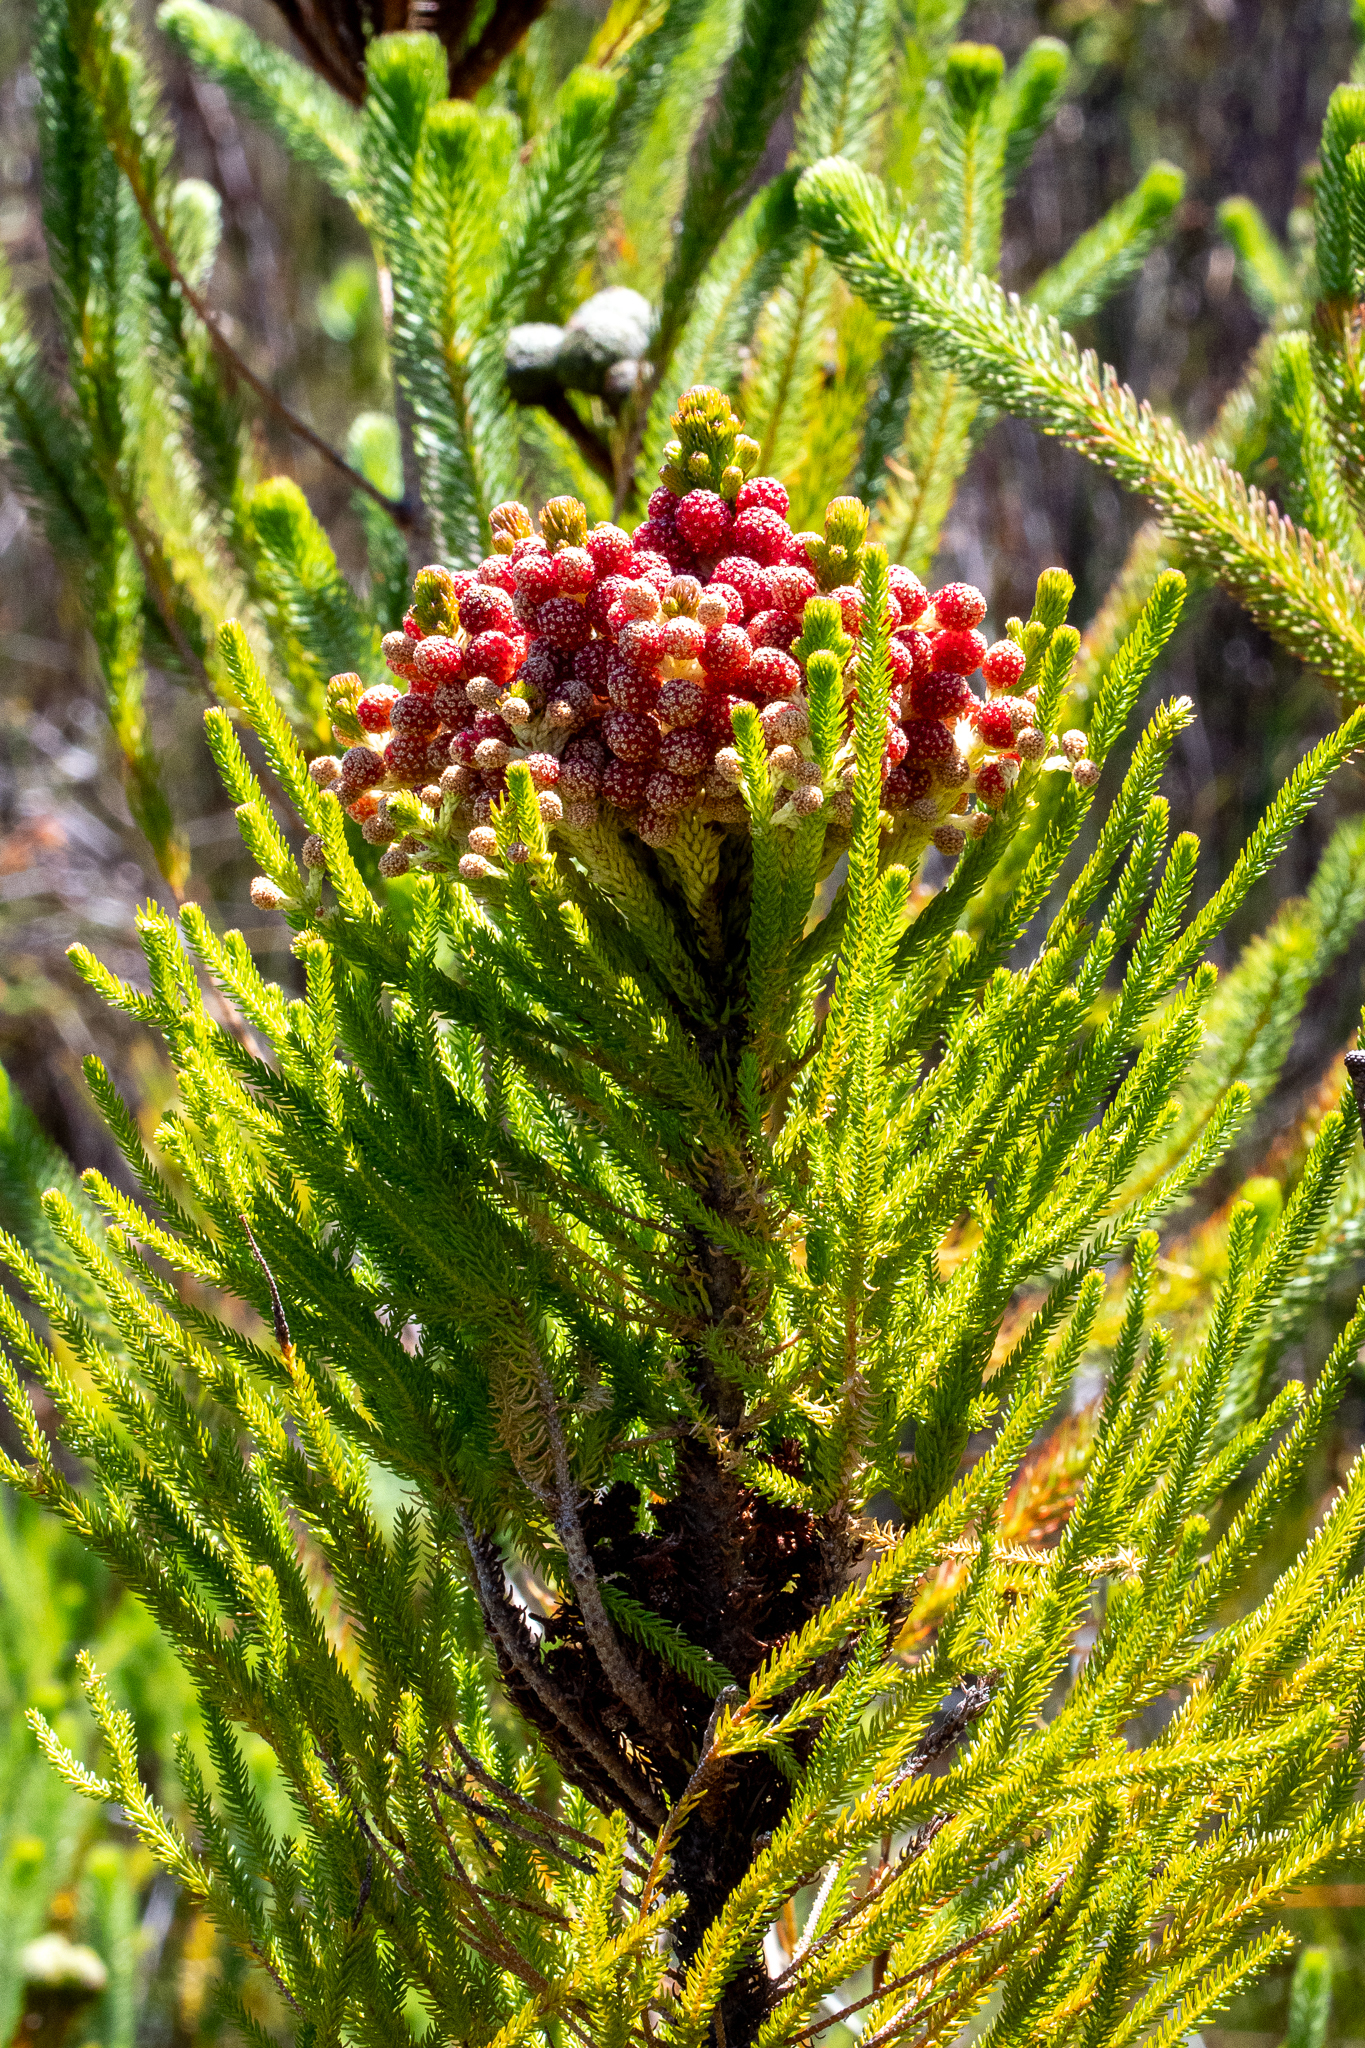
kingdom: Plantae
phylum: Tracheophyta
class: Magnoliopsida
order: Bruniales
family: Bruniaceae
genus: Berzelia
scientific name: Berzelia alopecurioides
